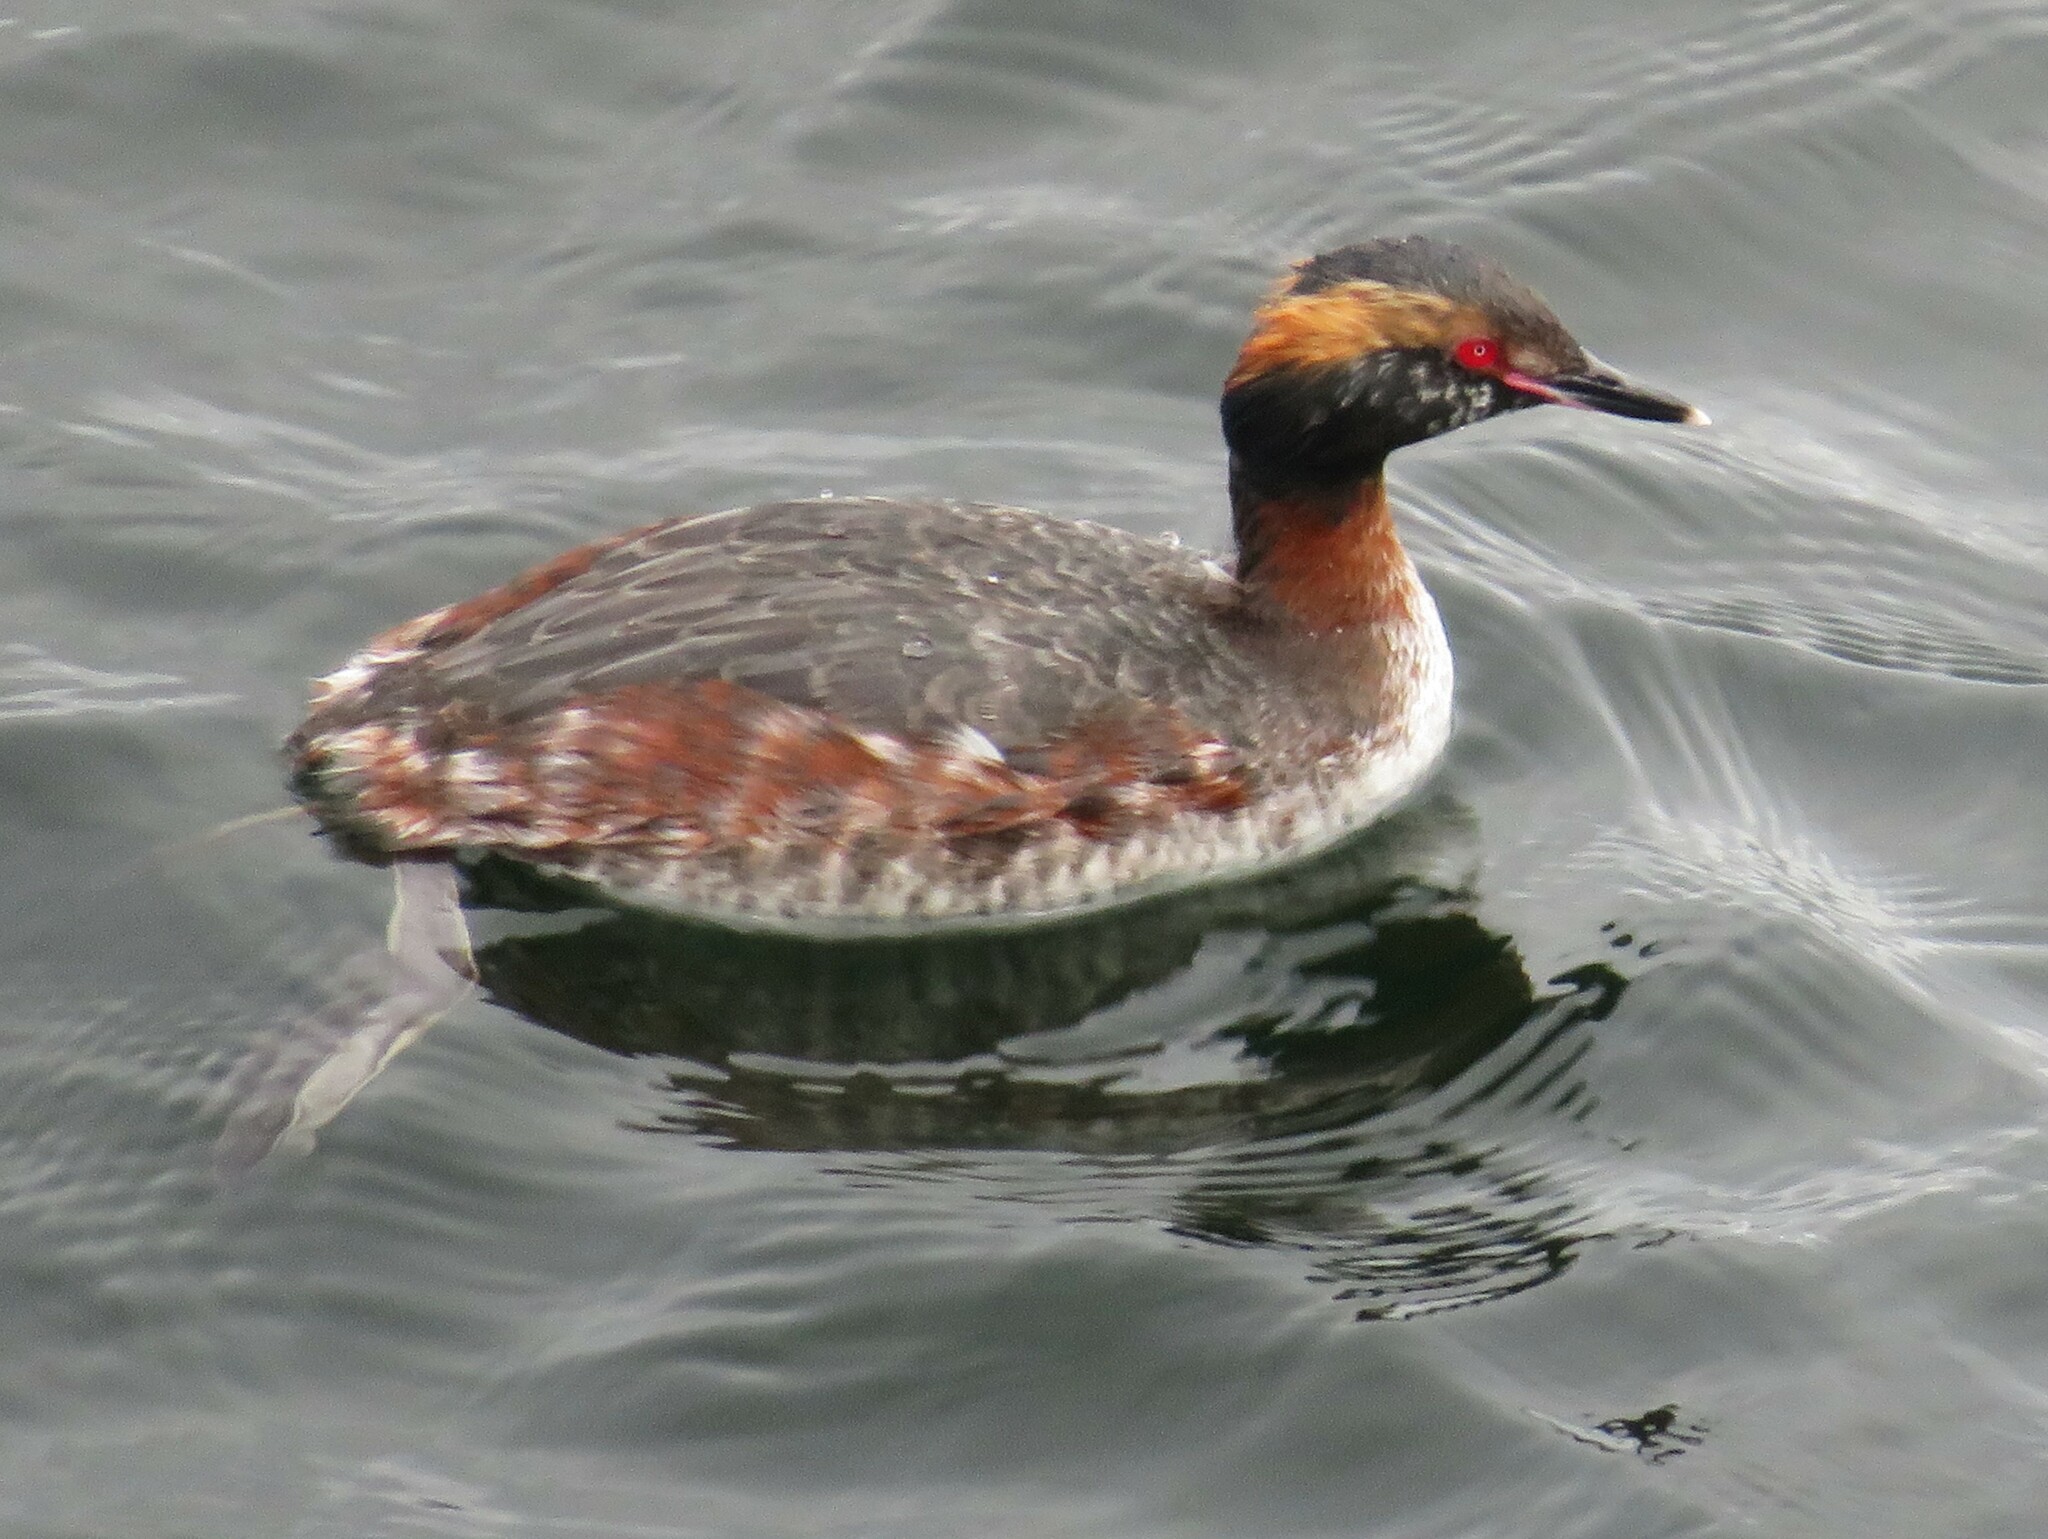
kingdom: Animalia
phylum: Chordata
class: Aves
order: Podicipediformes
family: Podicipedidae
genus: Podiceps
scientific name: Podiceps auritus
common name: Horned grebe
